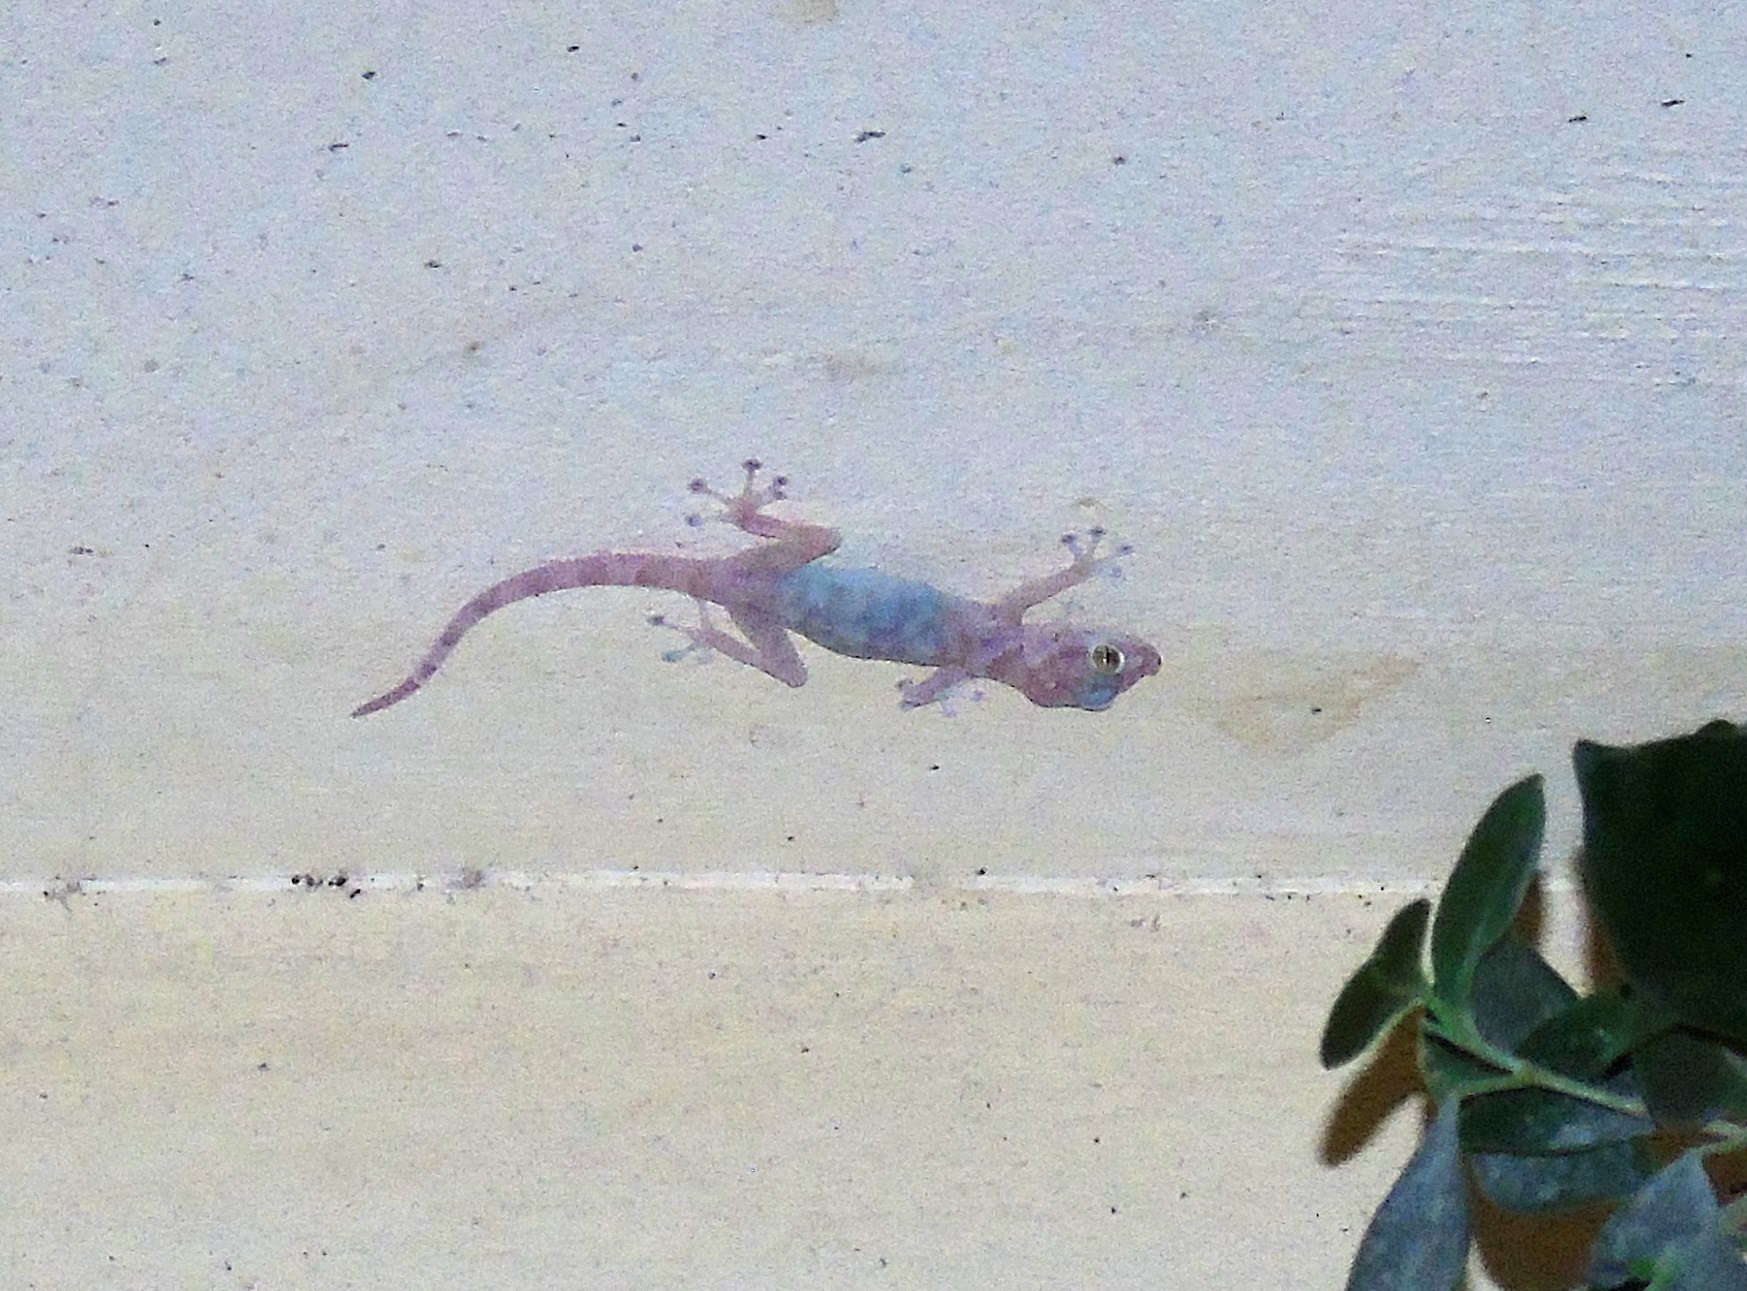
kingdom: Animalia
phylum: Chordata
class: Squamata
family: Phyllodactylidae
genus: Ptyodactylus
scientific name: Ptyodactylus hasselquistii
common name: Hasselquist’s fan-footed gecko
